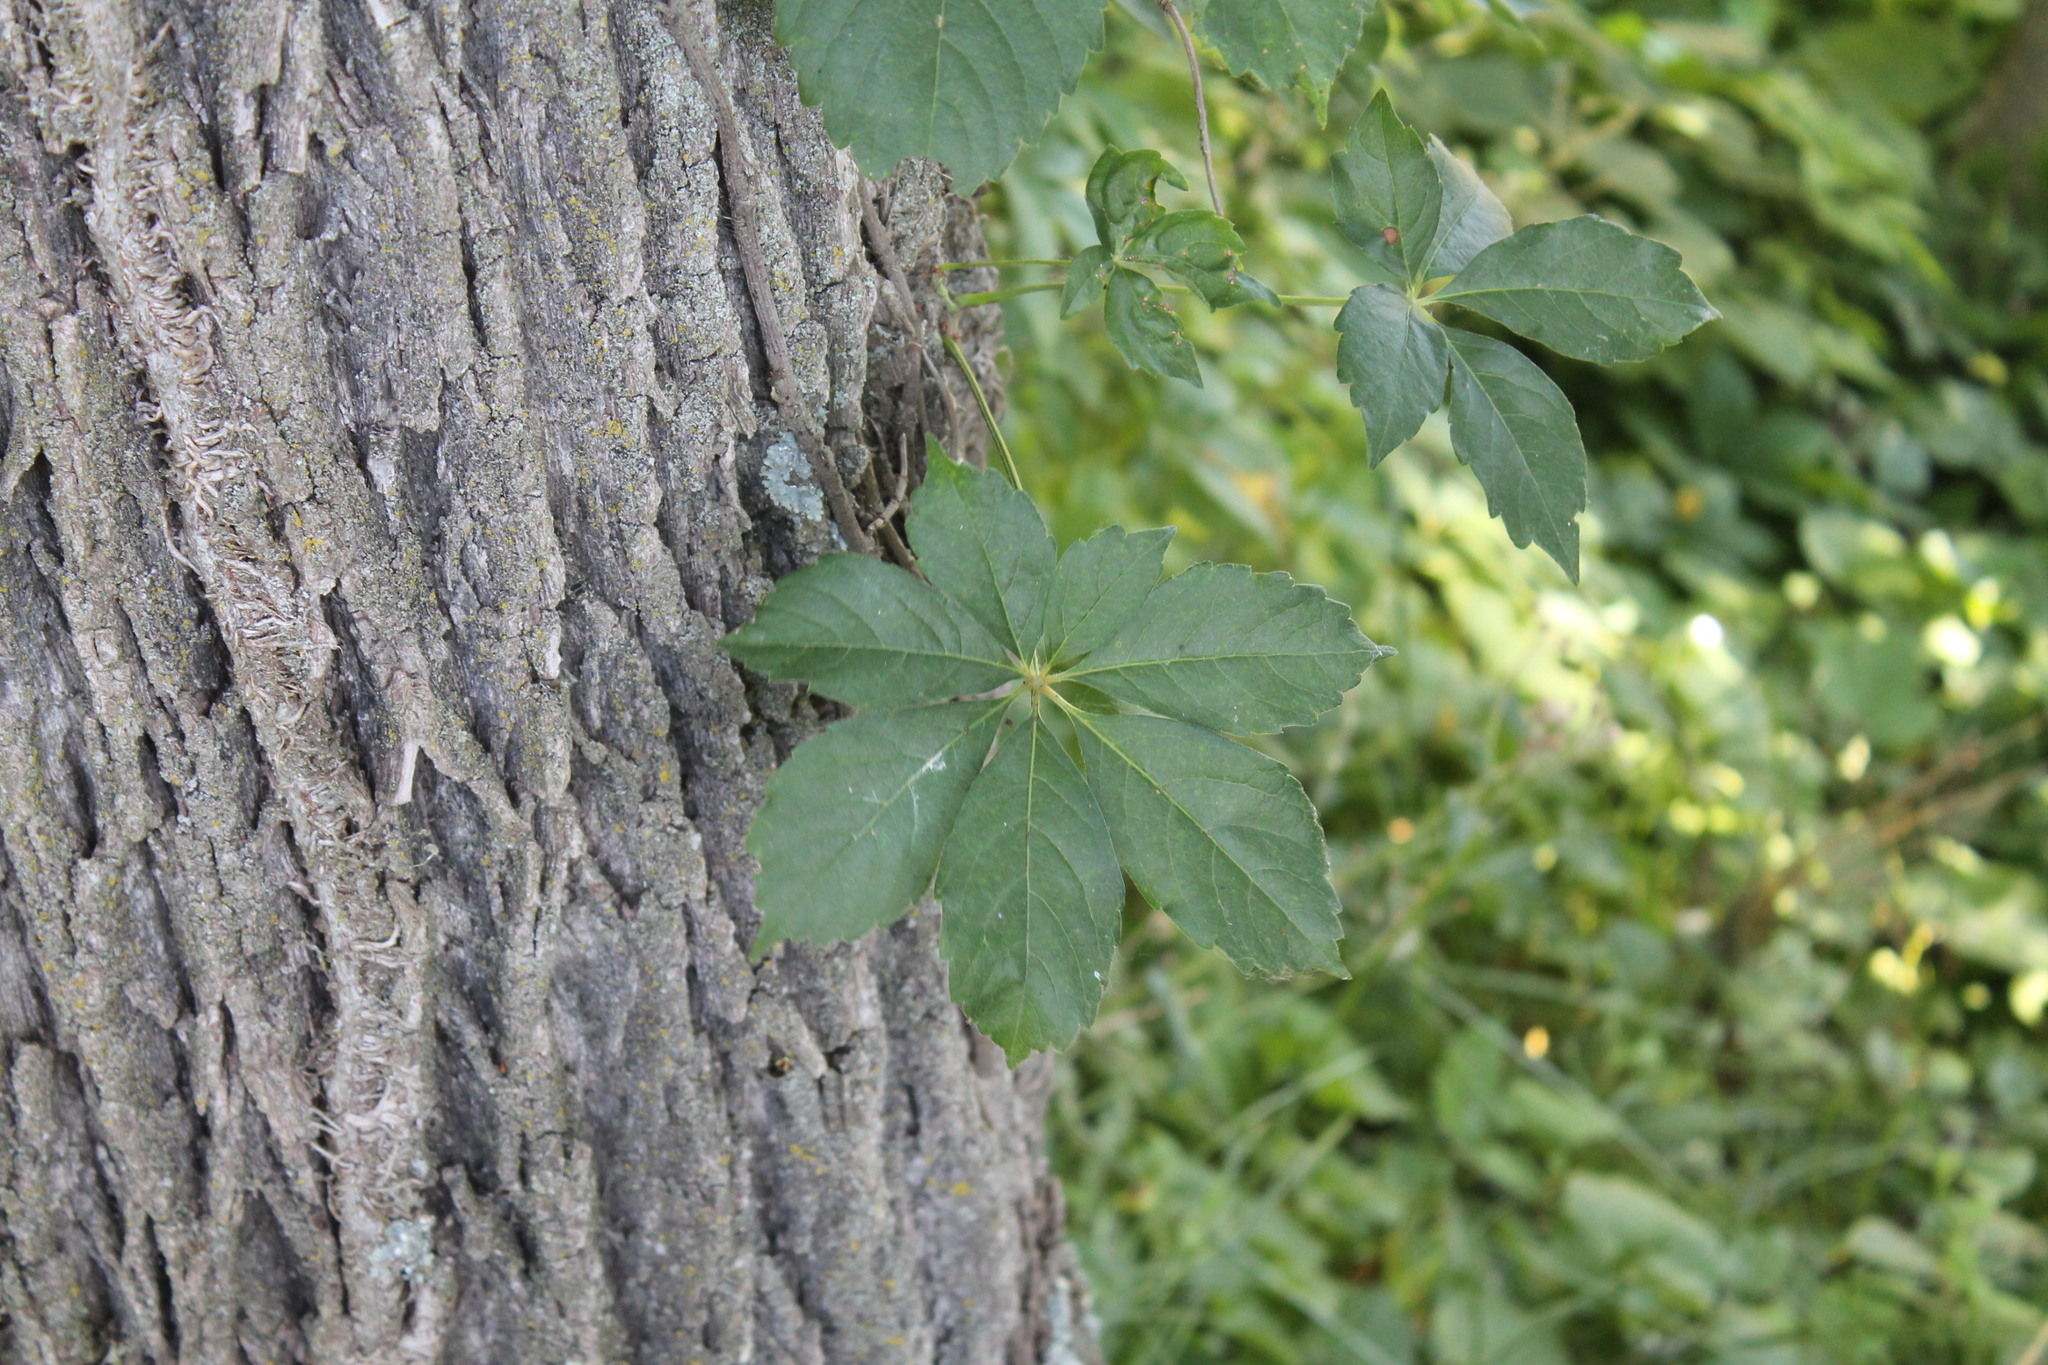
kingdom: Plantae
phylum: Tracheophyta
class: Magnoliopsida
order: Vitales
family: Vitaceae
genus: Parthenocissus
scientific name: Parthenocissus quinquefolia
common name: Virginia-creeper
